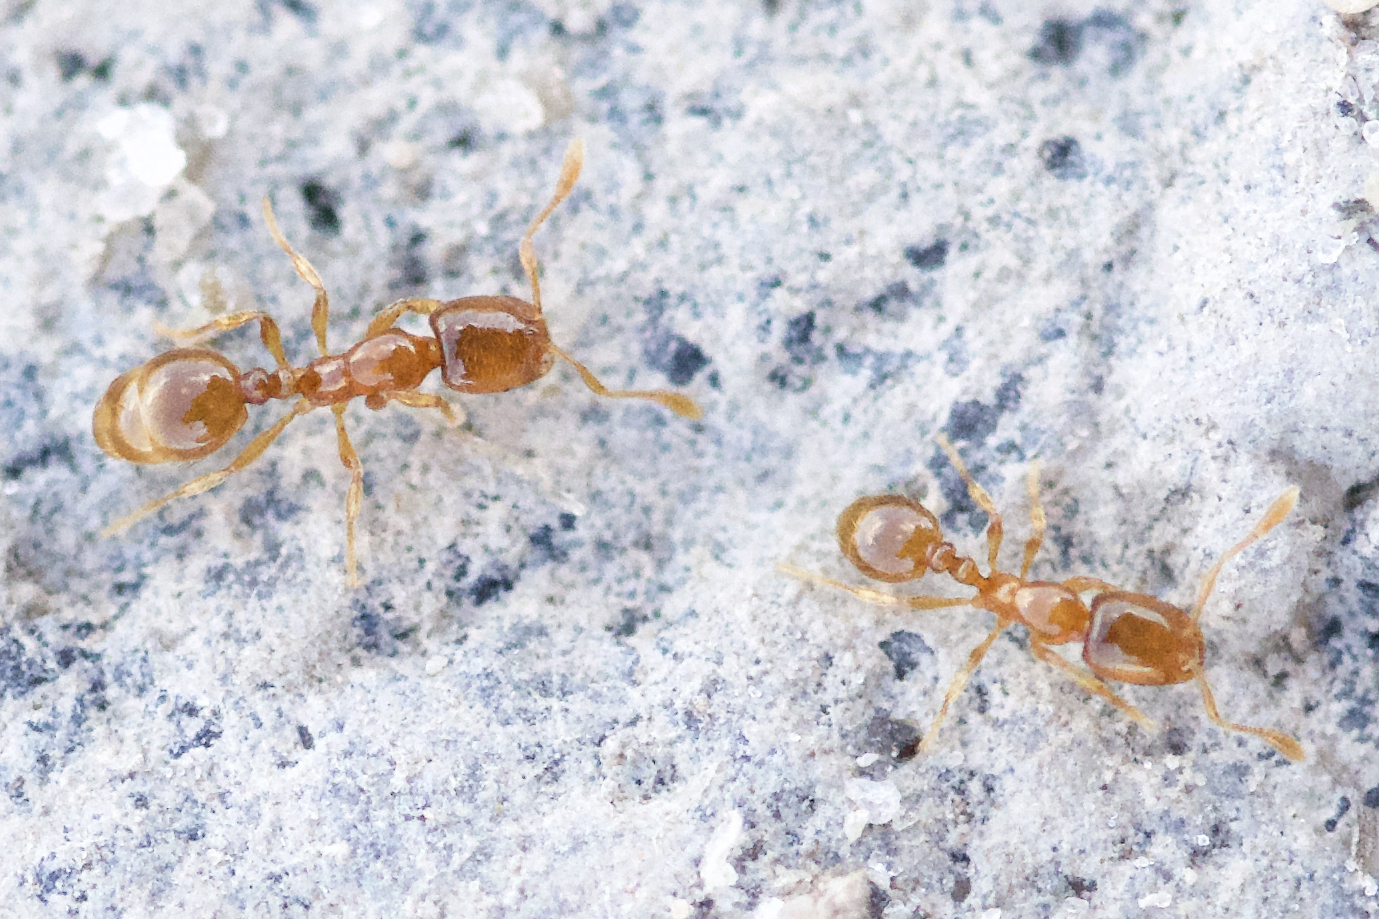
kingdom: Animalia
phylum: Arthropoda
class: Insecta
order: Hymenoptera
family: Formicidae
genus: Solenopsis
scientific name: Solenopsis molesta
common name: Thief ant
